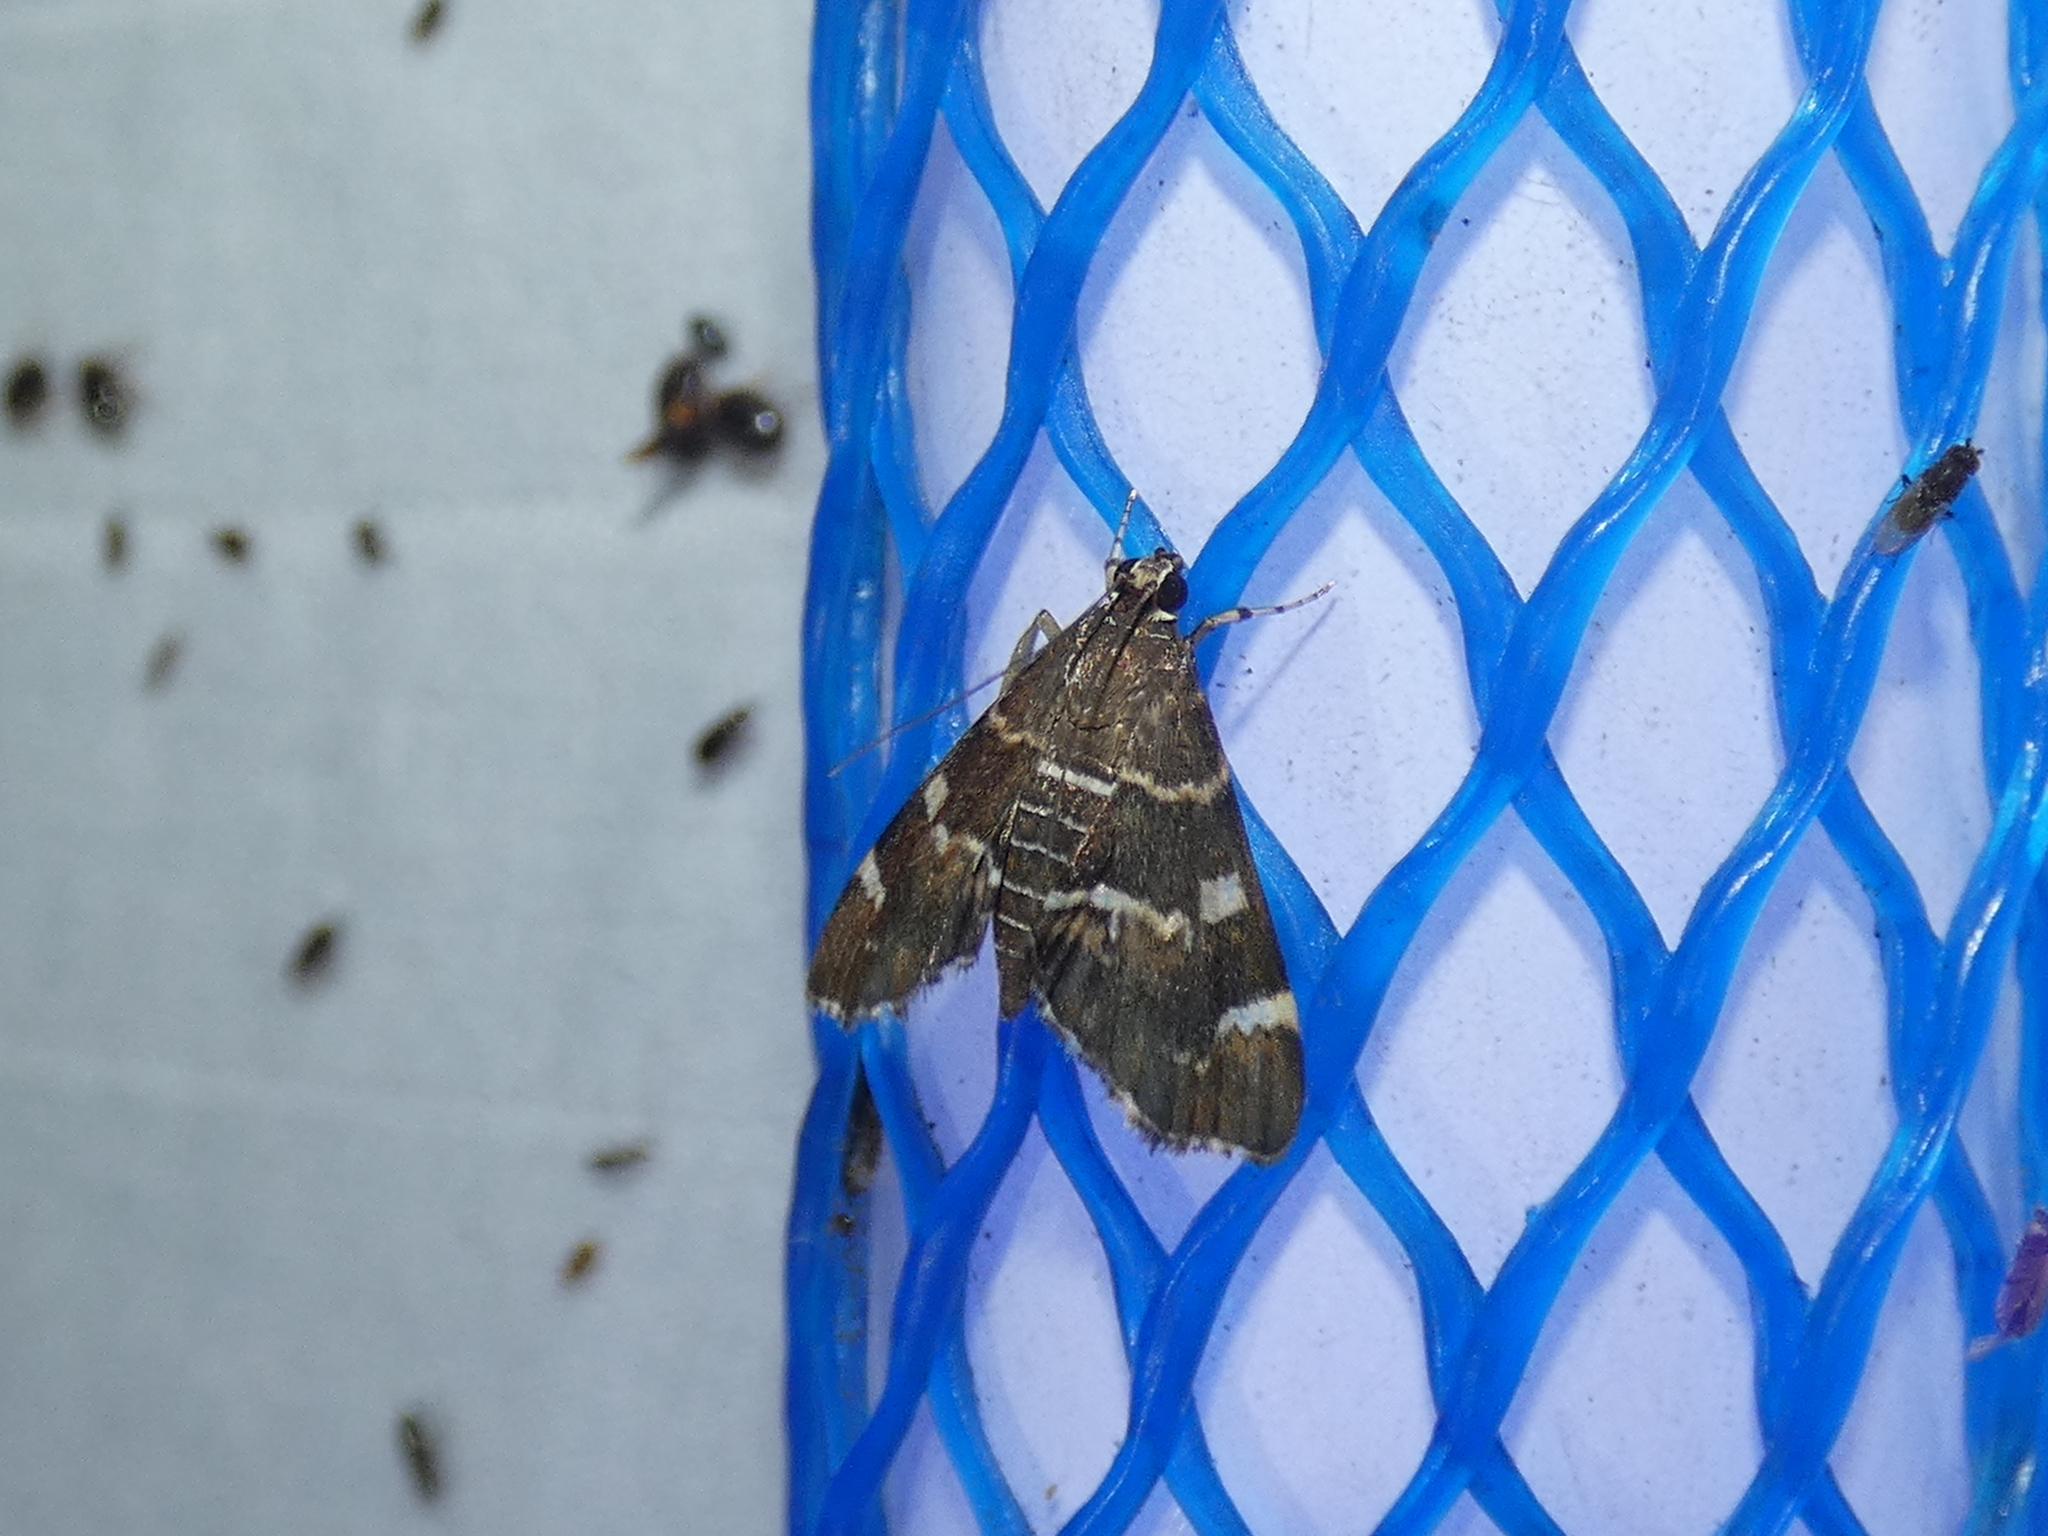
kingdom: Animalia
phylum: Arthropoda
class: Insecta
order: Lepidoptera
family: Crambidae
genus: Hymenia
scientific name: Hymenia perspectalis
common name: Spotted beet webworm
